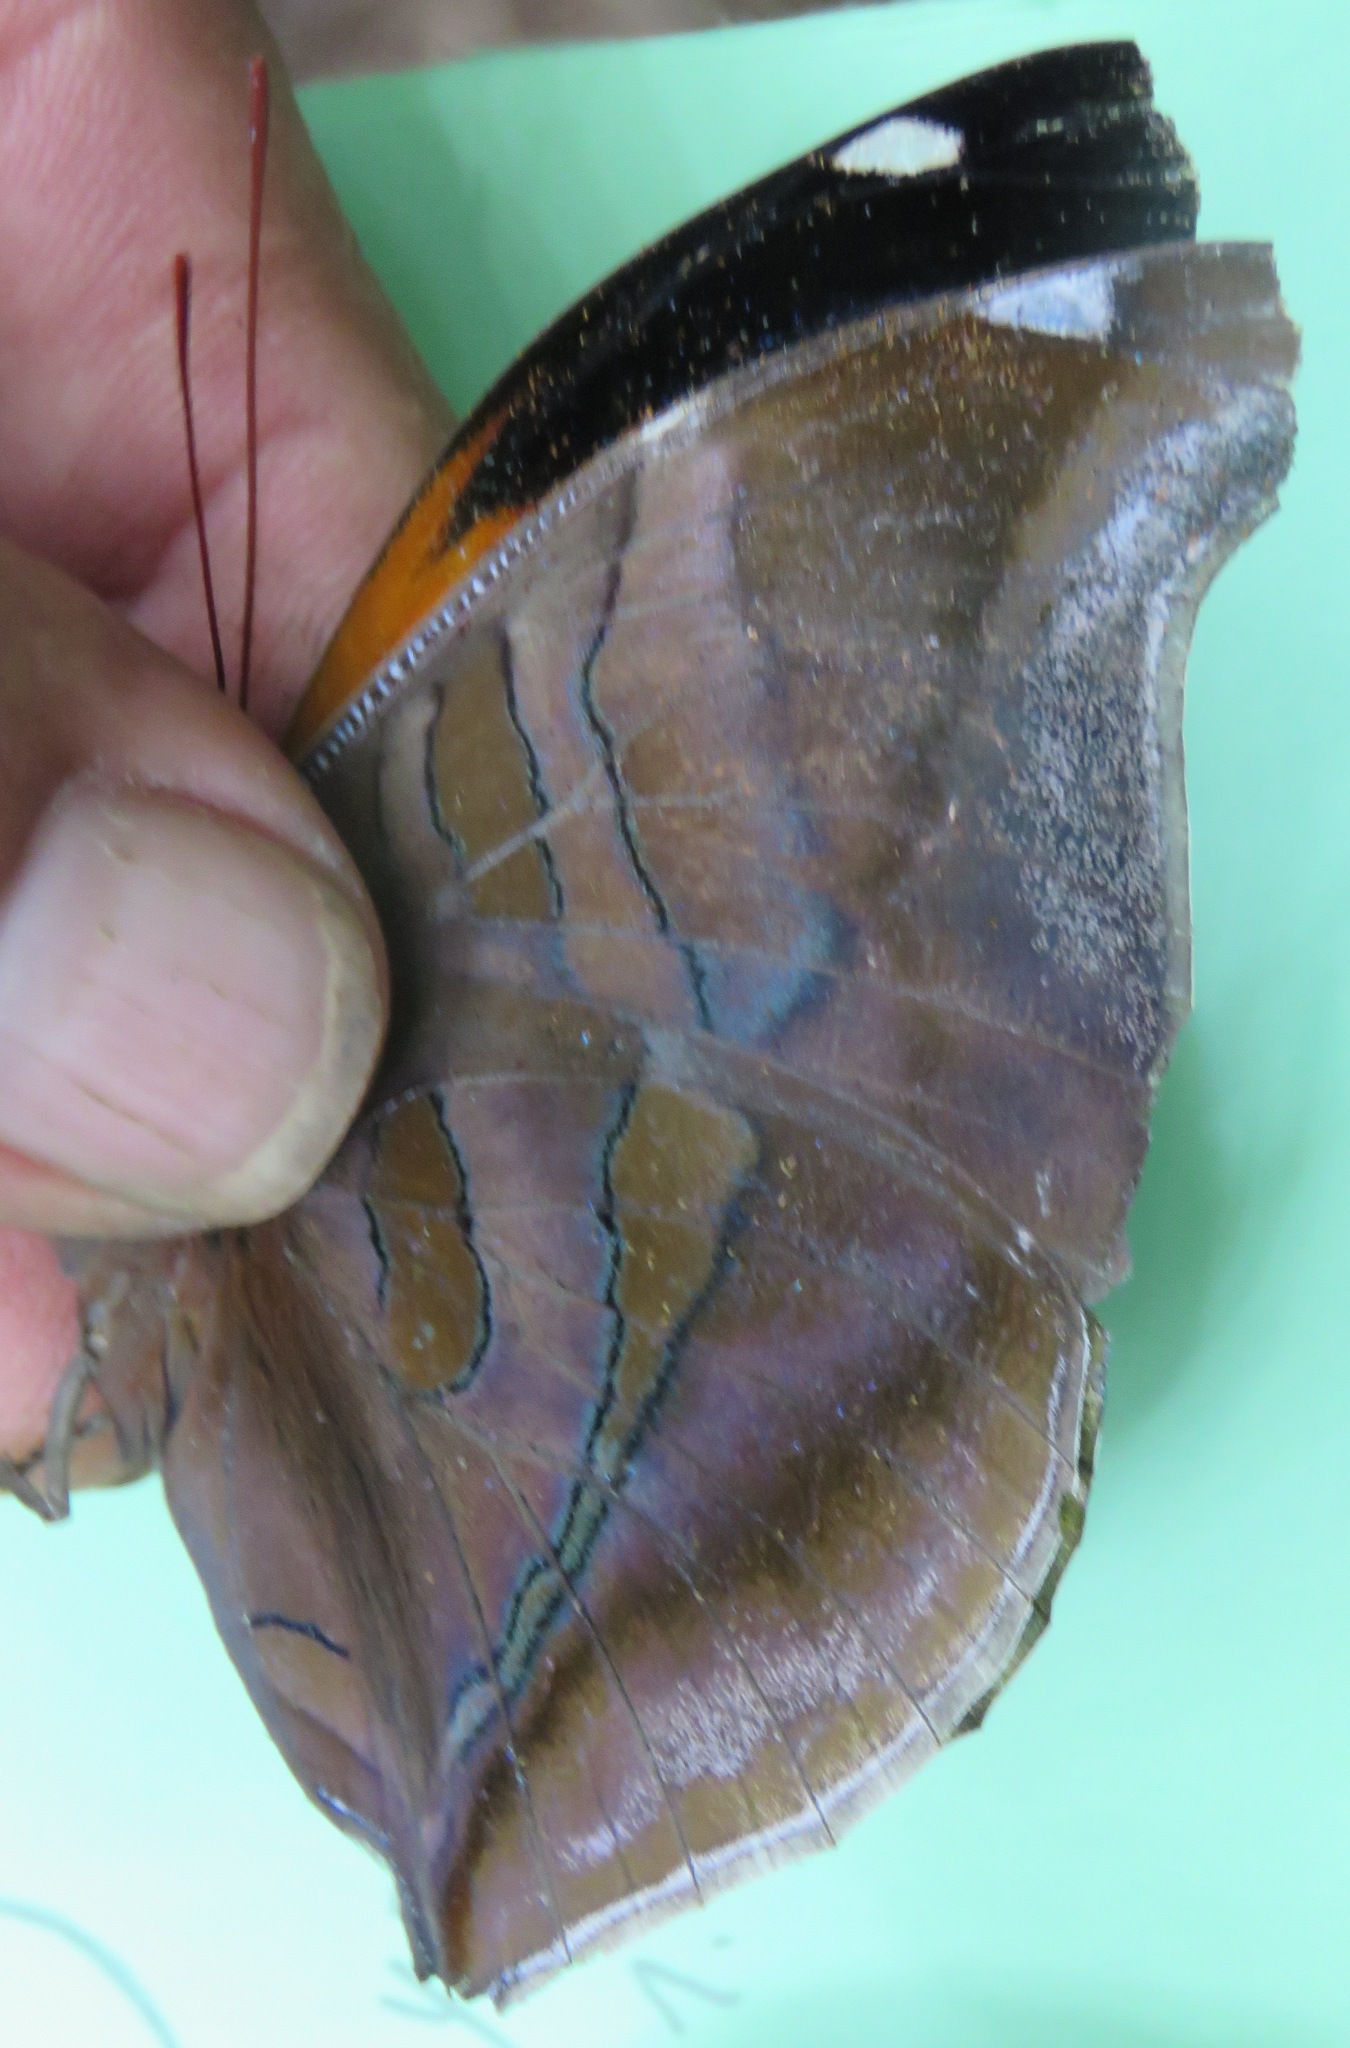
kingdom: Animalia
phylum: Arthropoda
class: Insecta
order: Lepidoptera
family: Nymphalidae
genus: Historis
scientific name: Historis odius
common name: Orion cecropian
